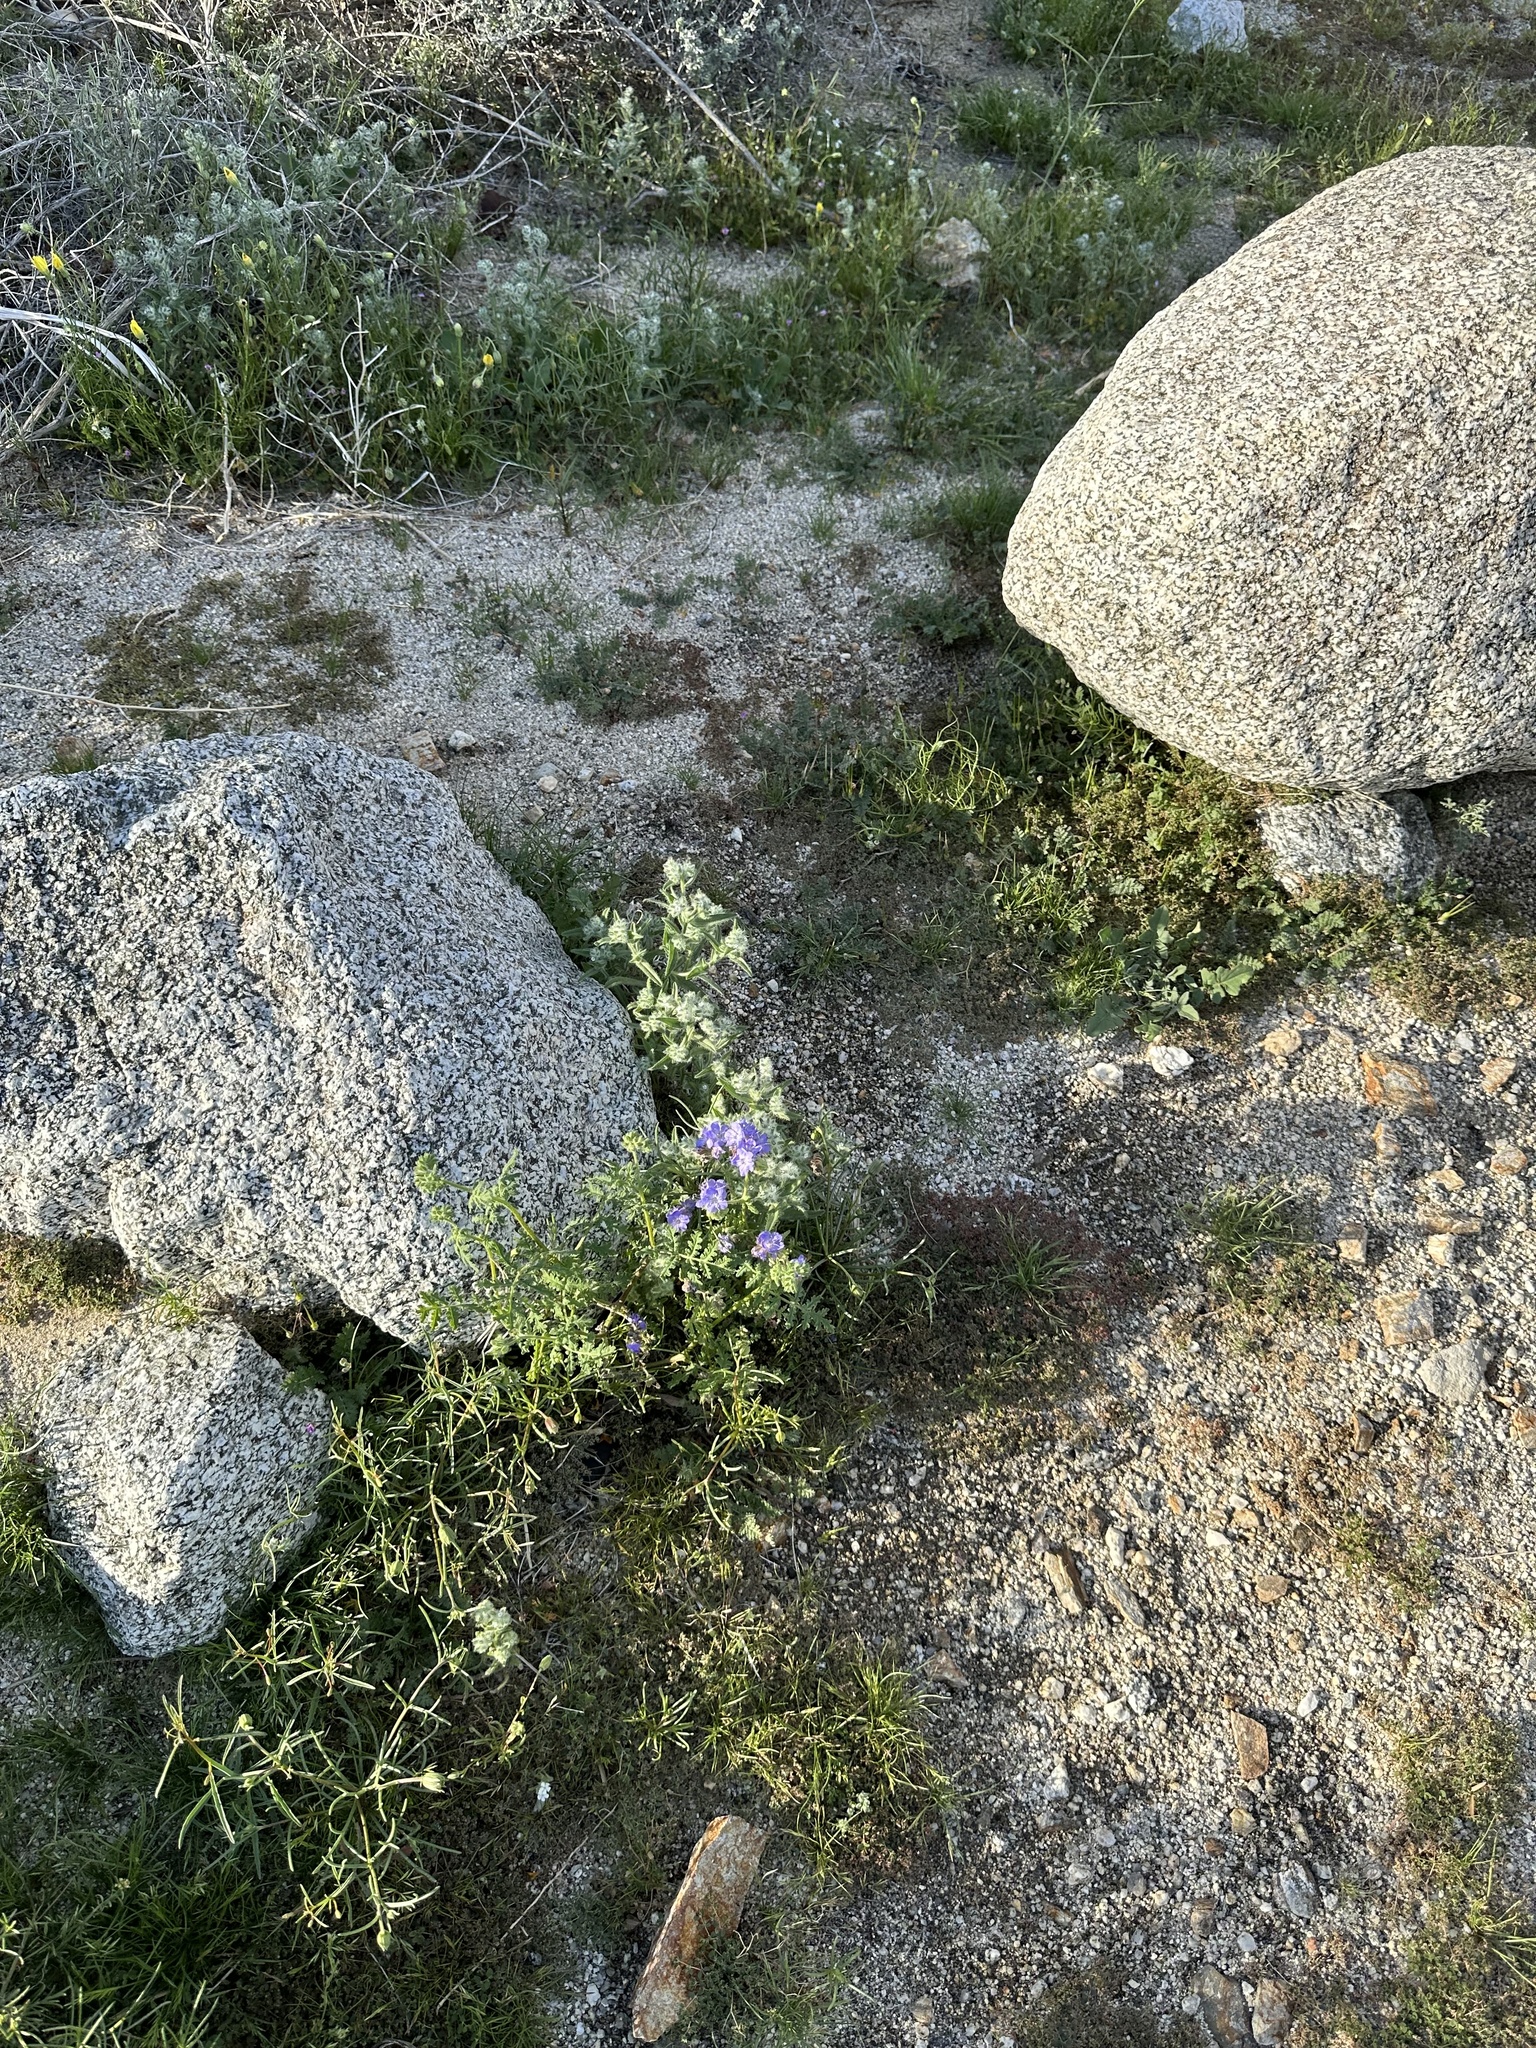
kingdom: Plantae
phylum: Tracheophyta
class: Magnoliopsida
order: Boraginales
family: Hydrophyllaceae
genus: Phacelia
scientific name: Phacelia distans
